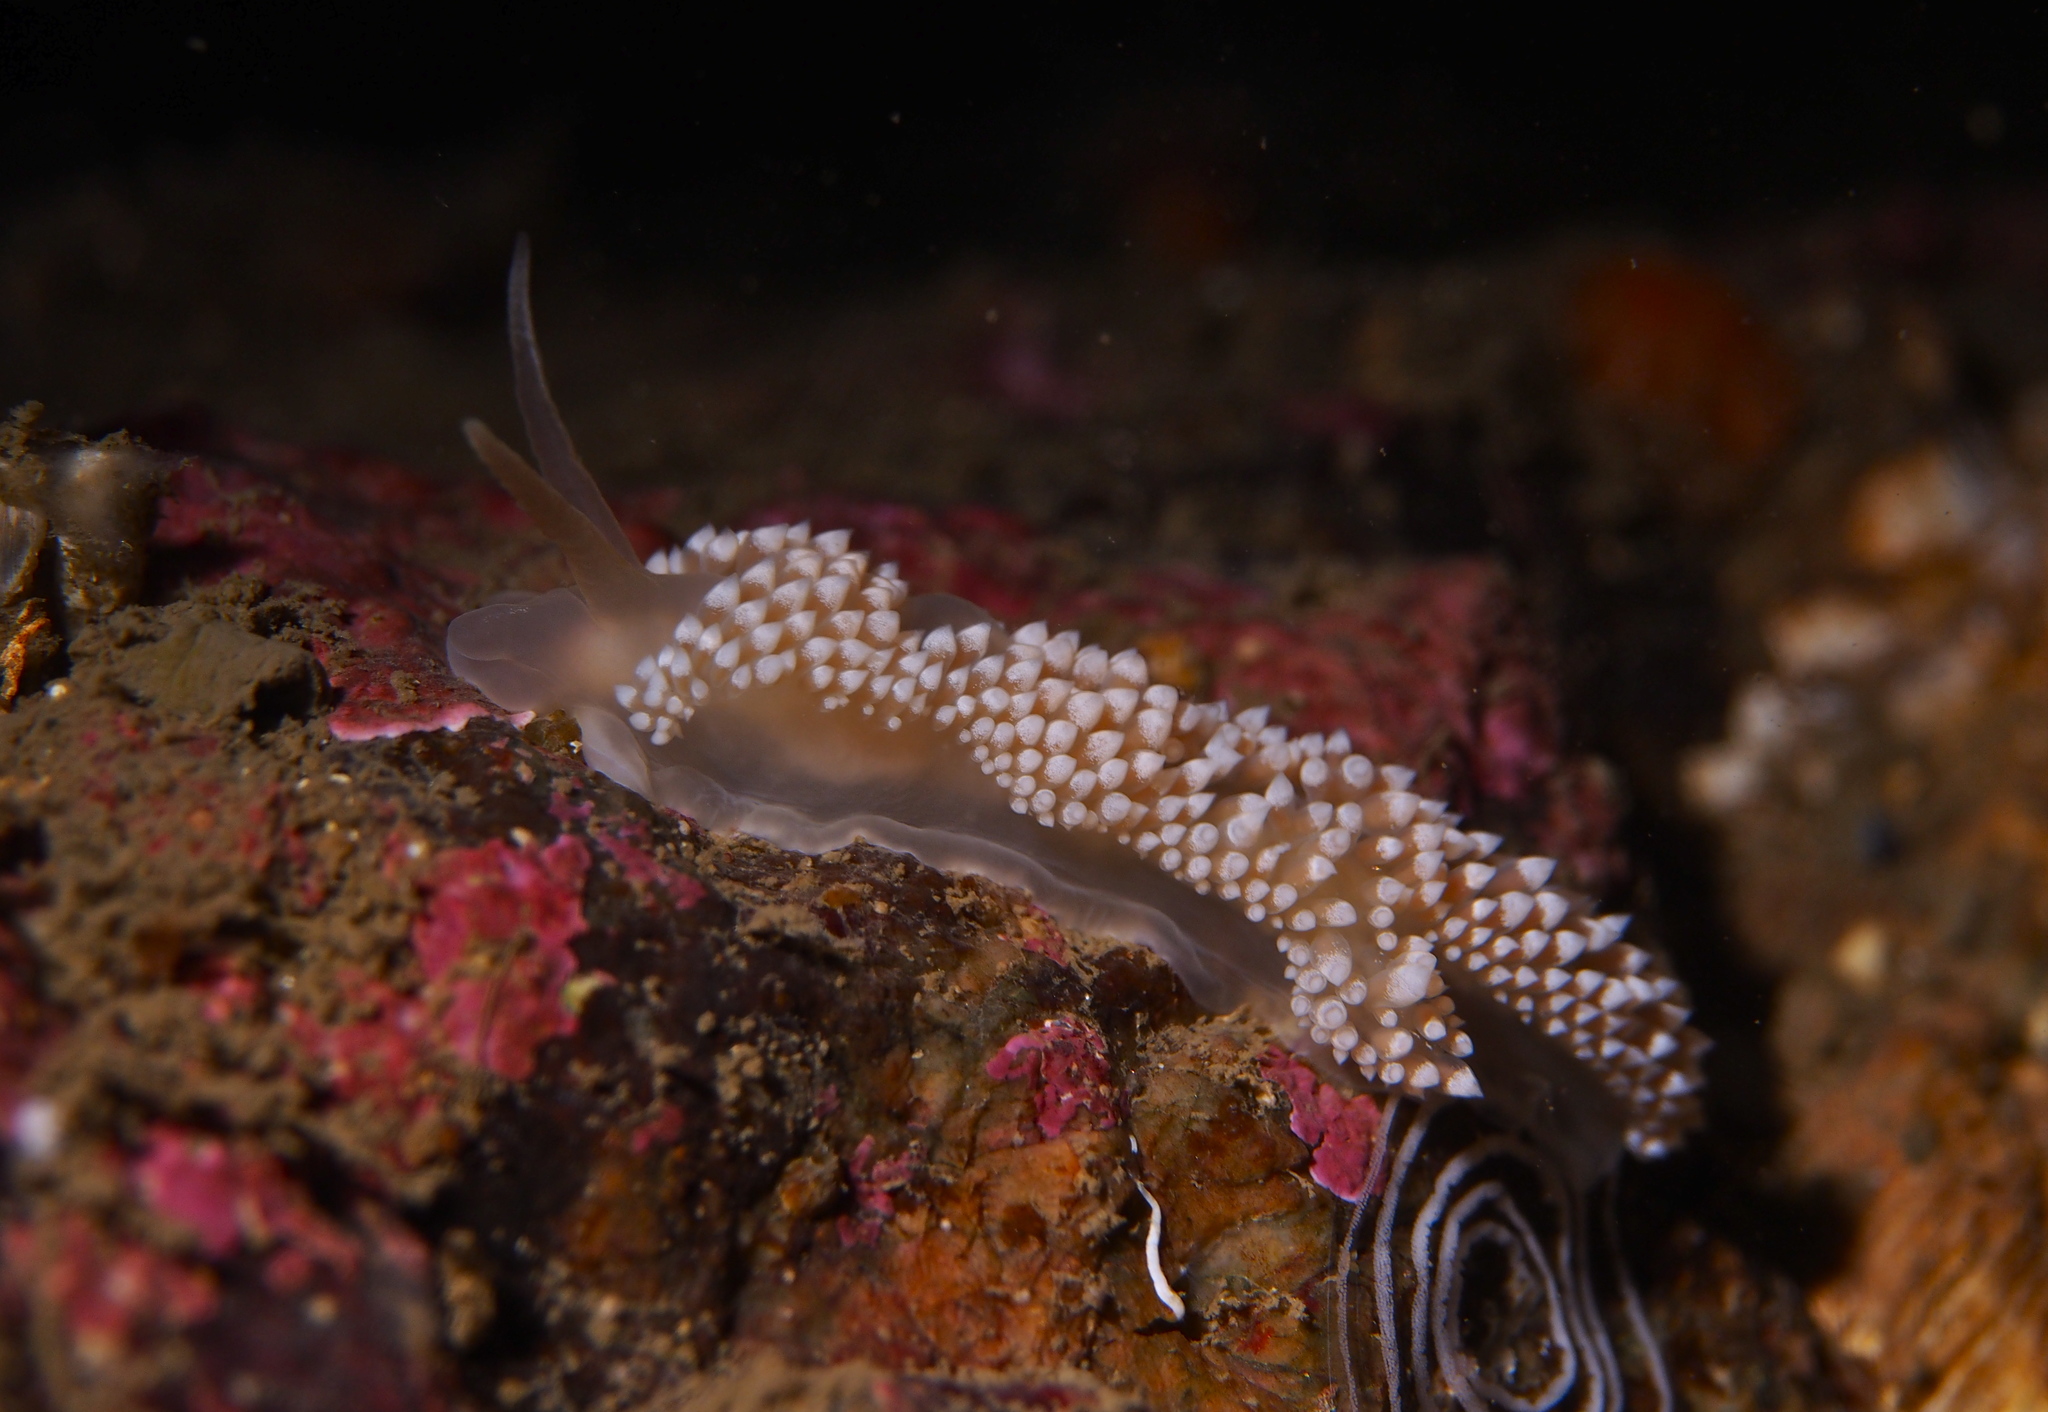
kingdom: Animalia
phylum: Mollusca
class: Gastropoda
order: Nudibranchia
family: Coryphellidae
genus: Coryphella
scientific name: Coryphella verrucosa
